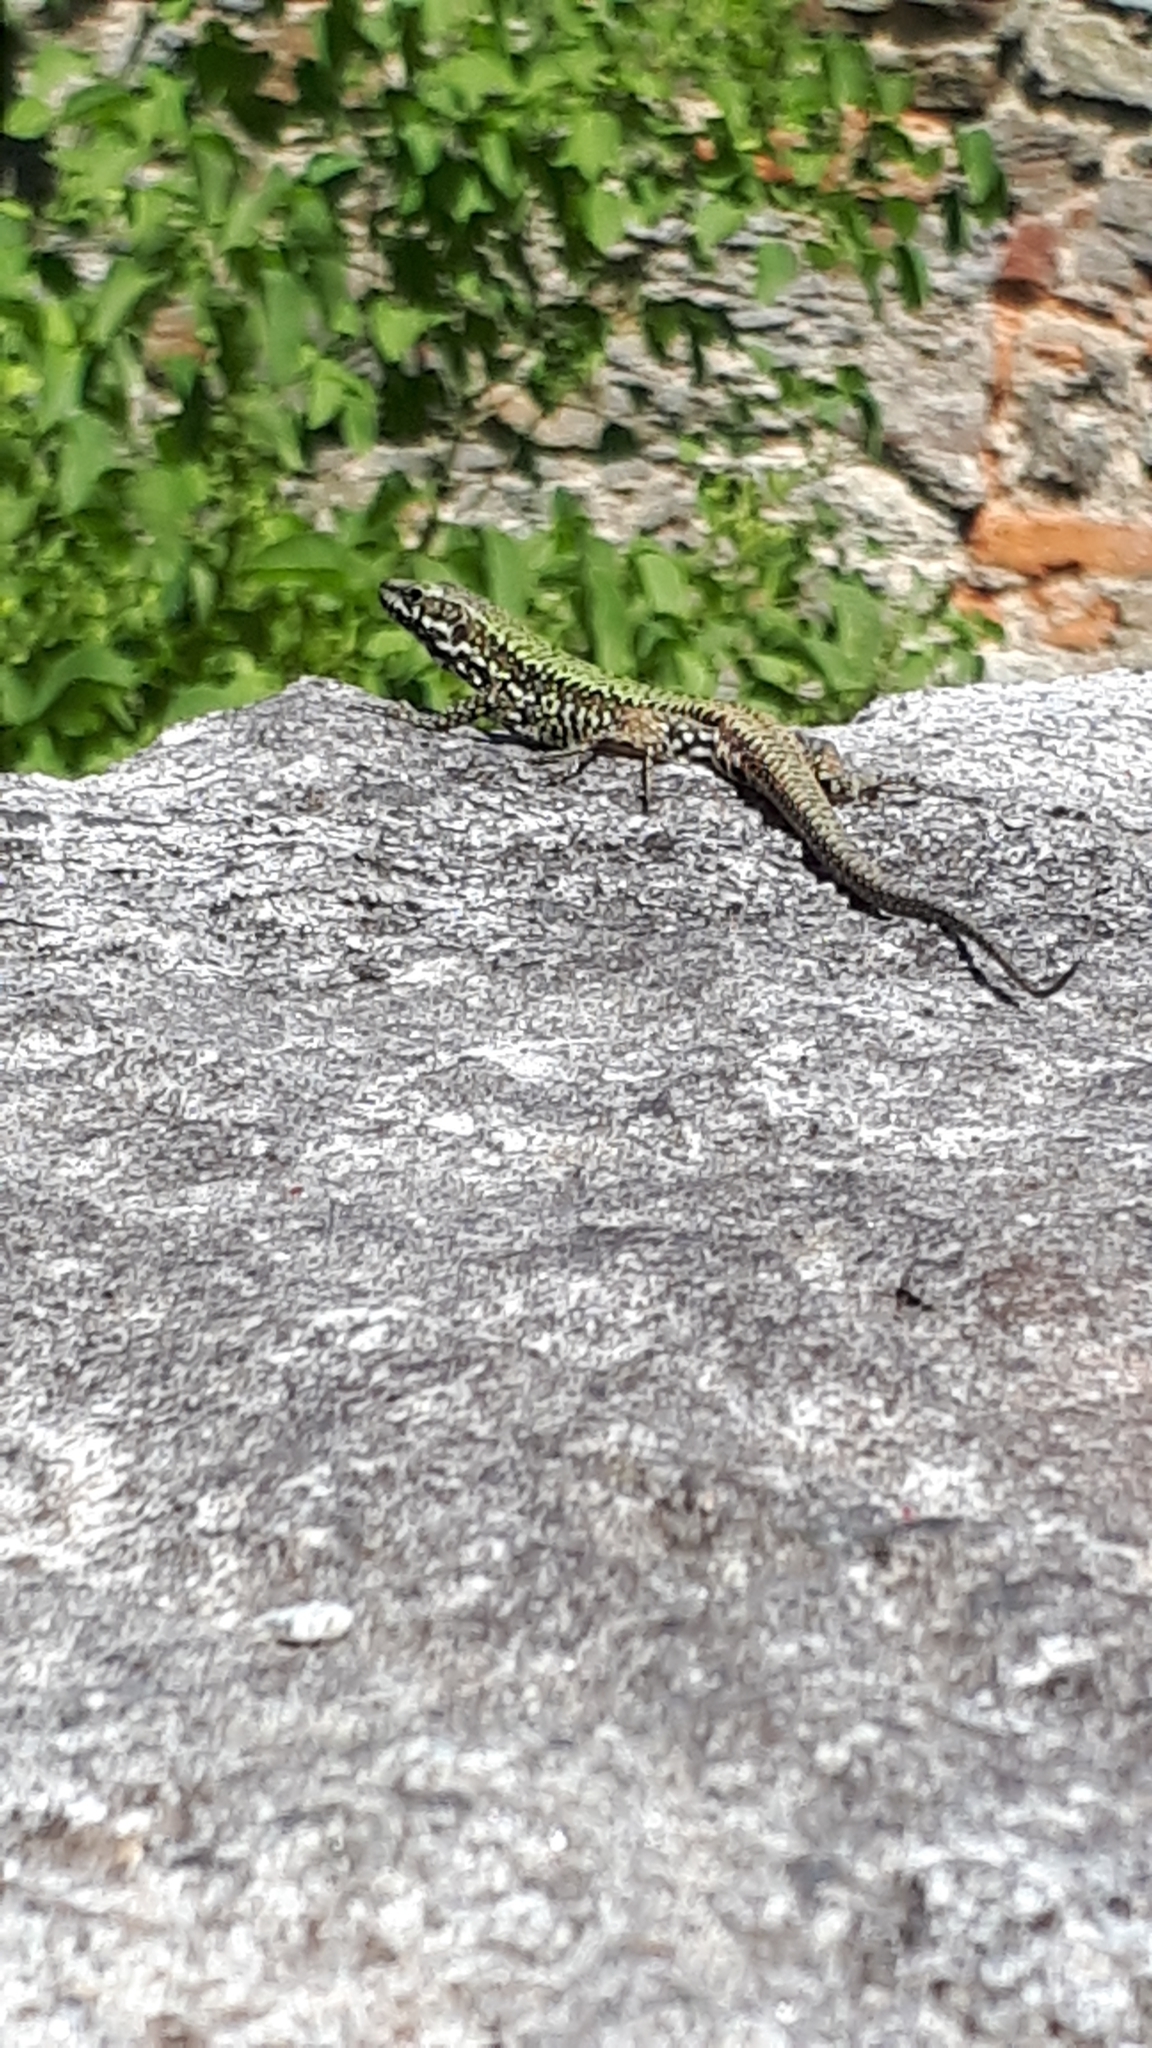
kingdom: Animalia
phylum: Chordata
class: Squamata
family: Lacertidae
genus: Podarcis
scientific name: Podarcis muralis
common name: Common wall lizard
